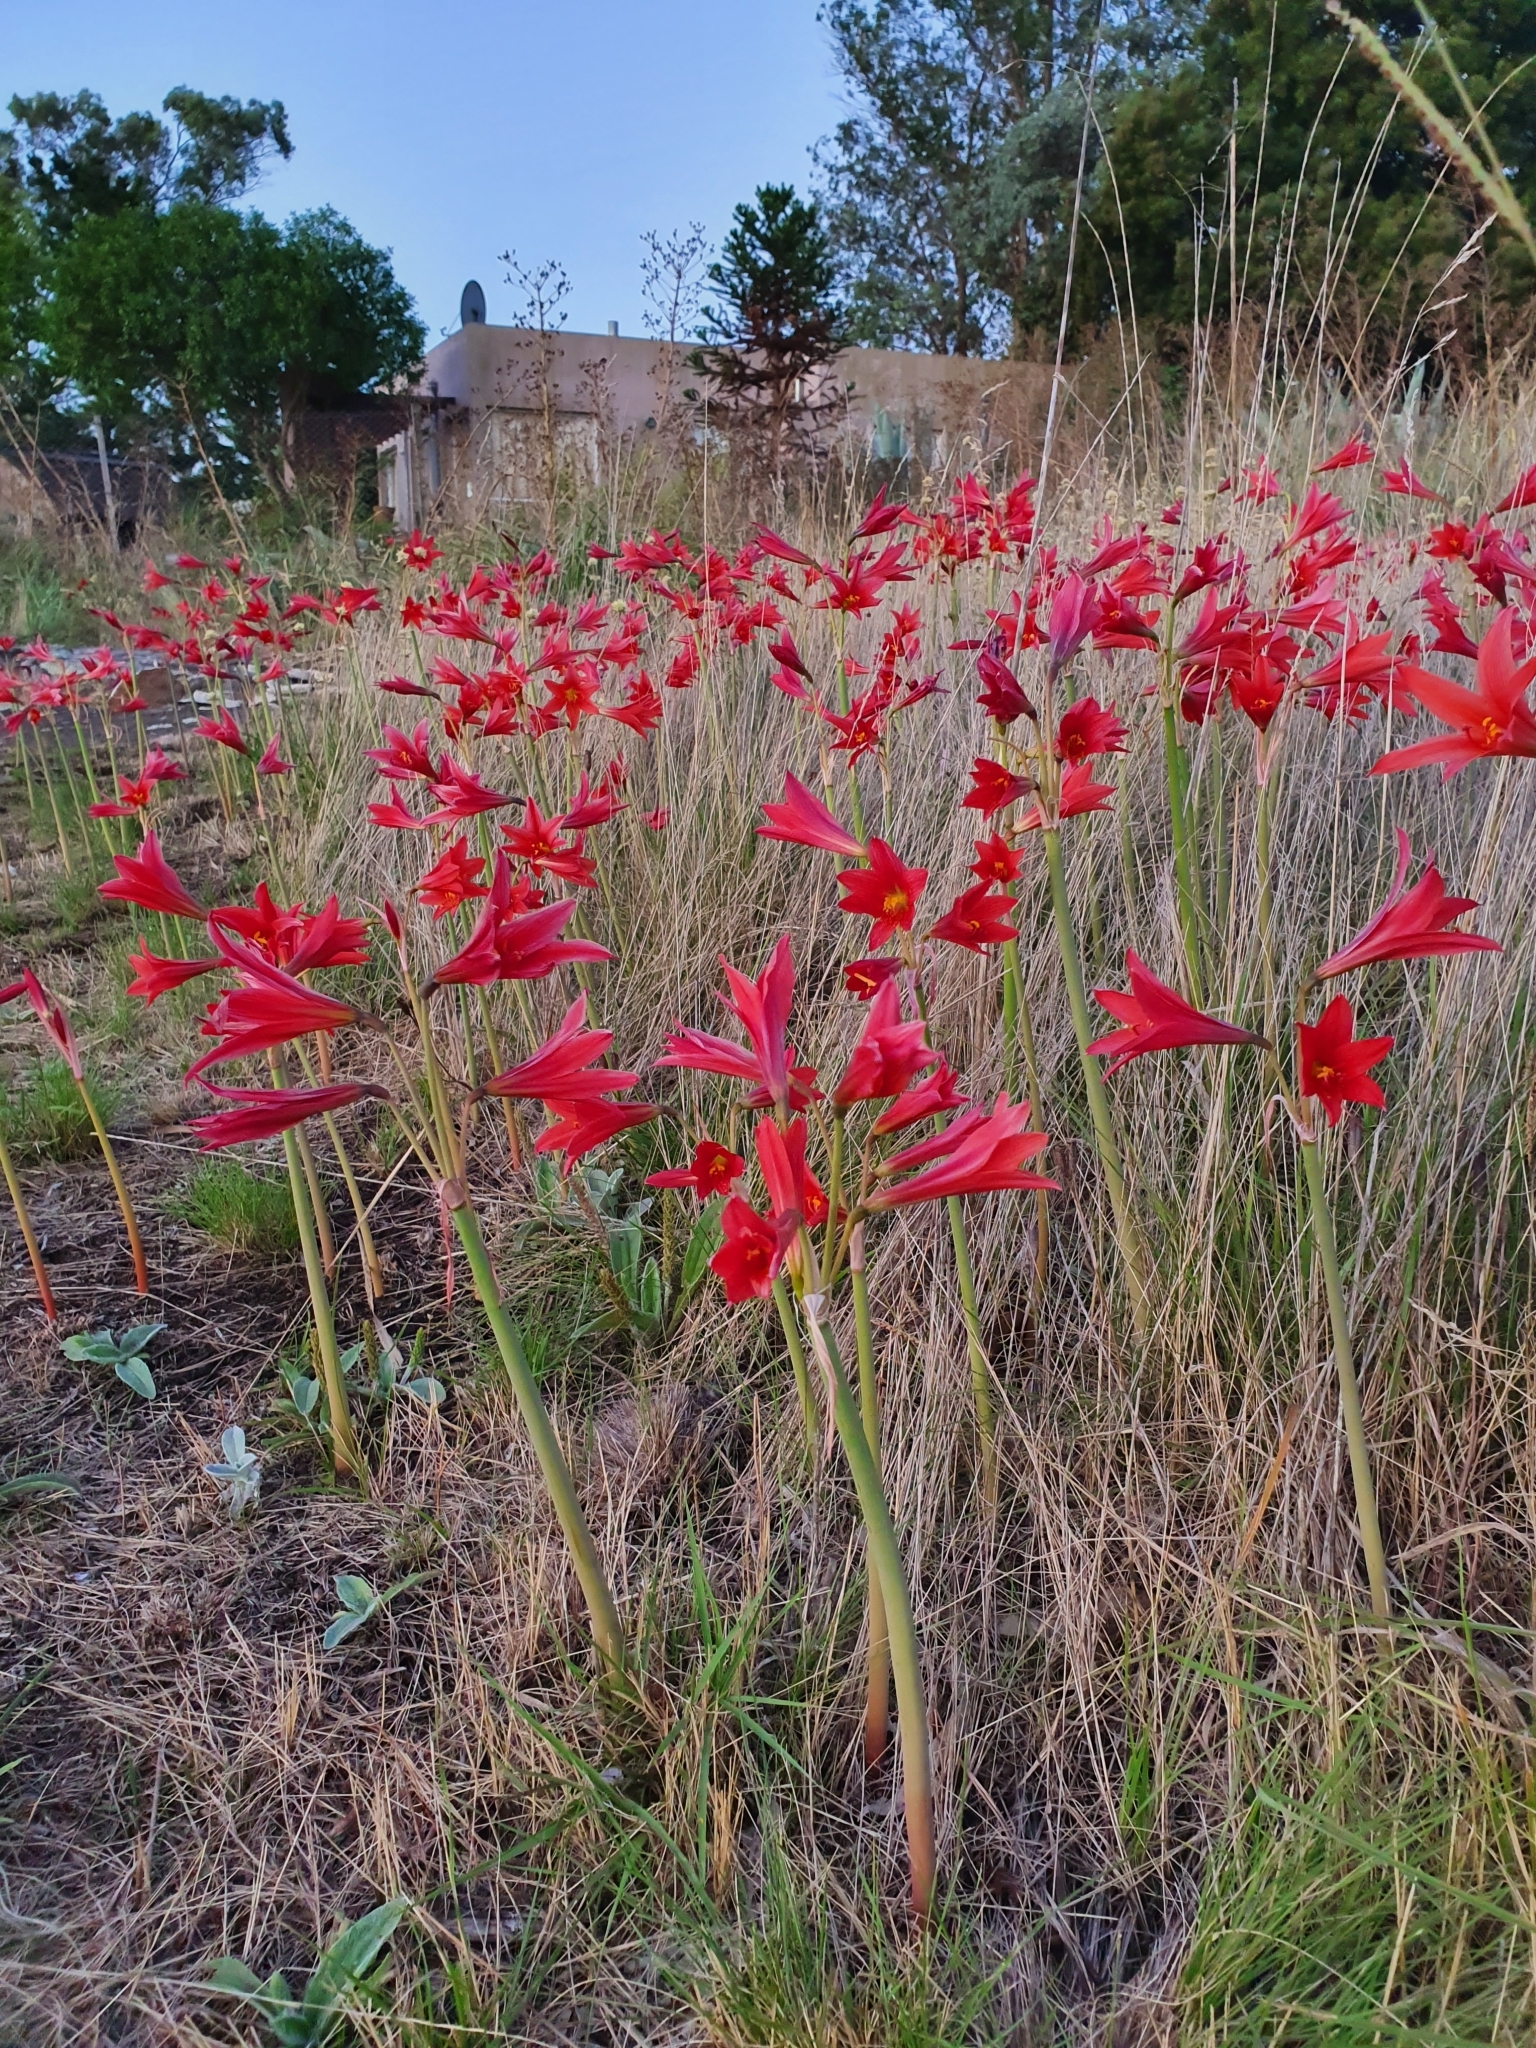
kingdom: Plantae
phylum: Tracheophyta
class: Liliopsida
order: Asparagales
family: Amaryllidaceae
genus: Zephyranthes
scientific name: Zephyranthes bifida
